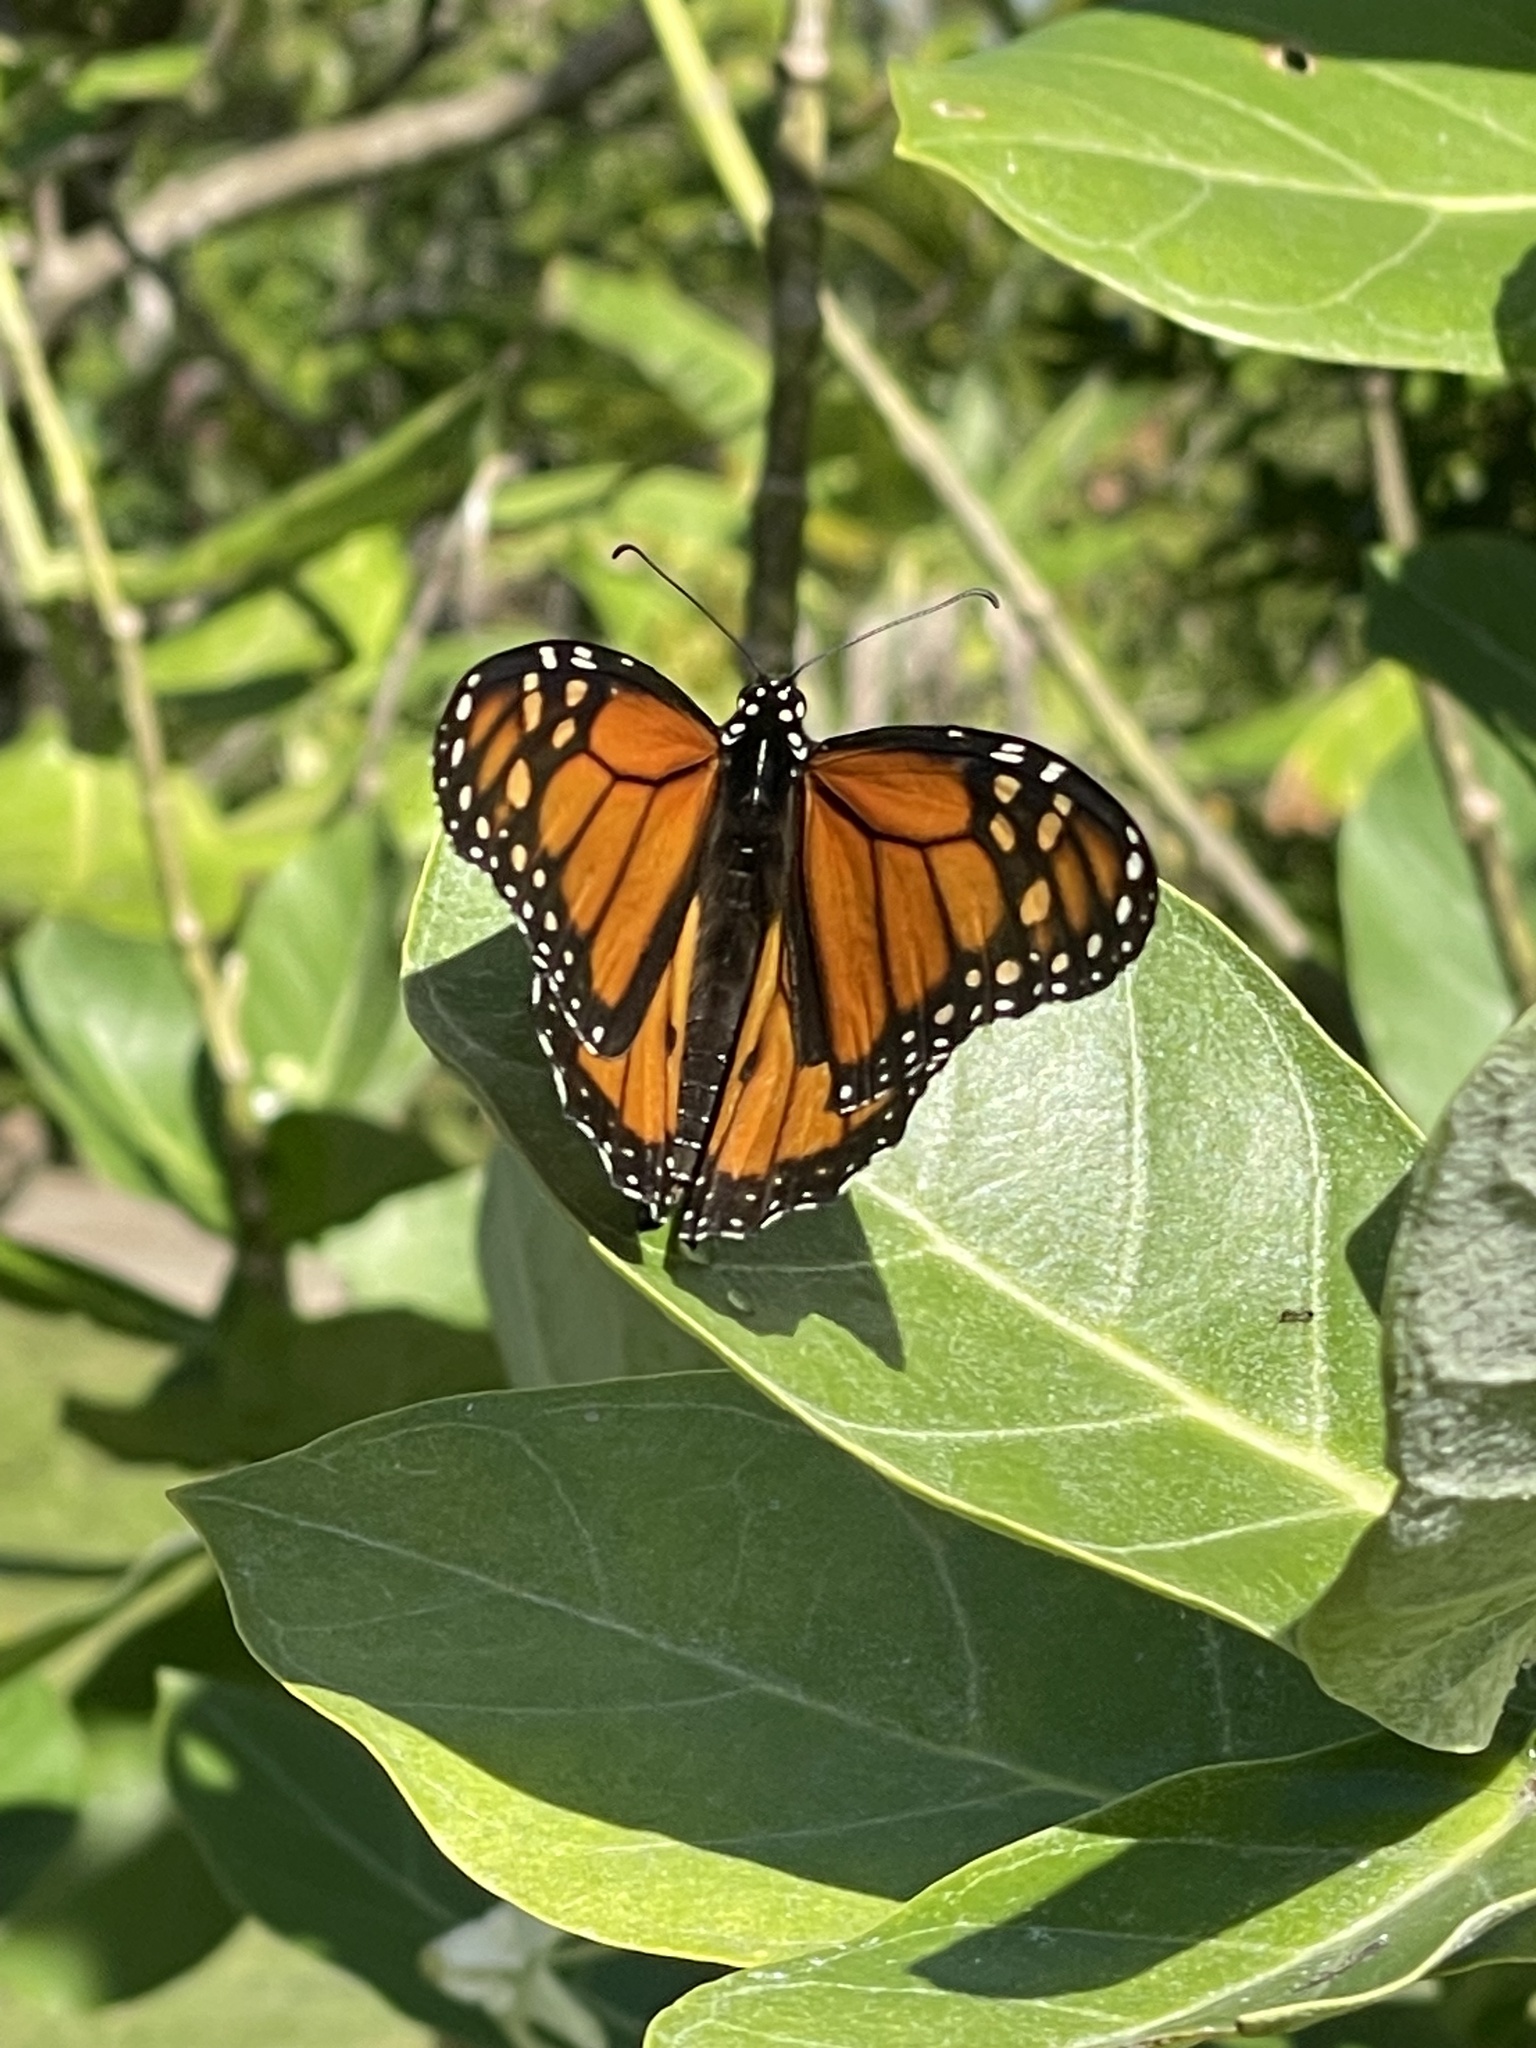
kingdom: Animalia
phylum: Arthropoda
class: Insecta
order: Lepidoptera
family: Nymphalidae
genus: Danaus
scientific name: Danaus plexippus
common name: Monarch
